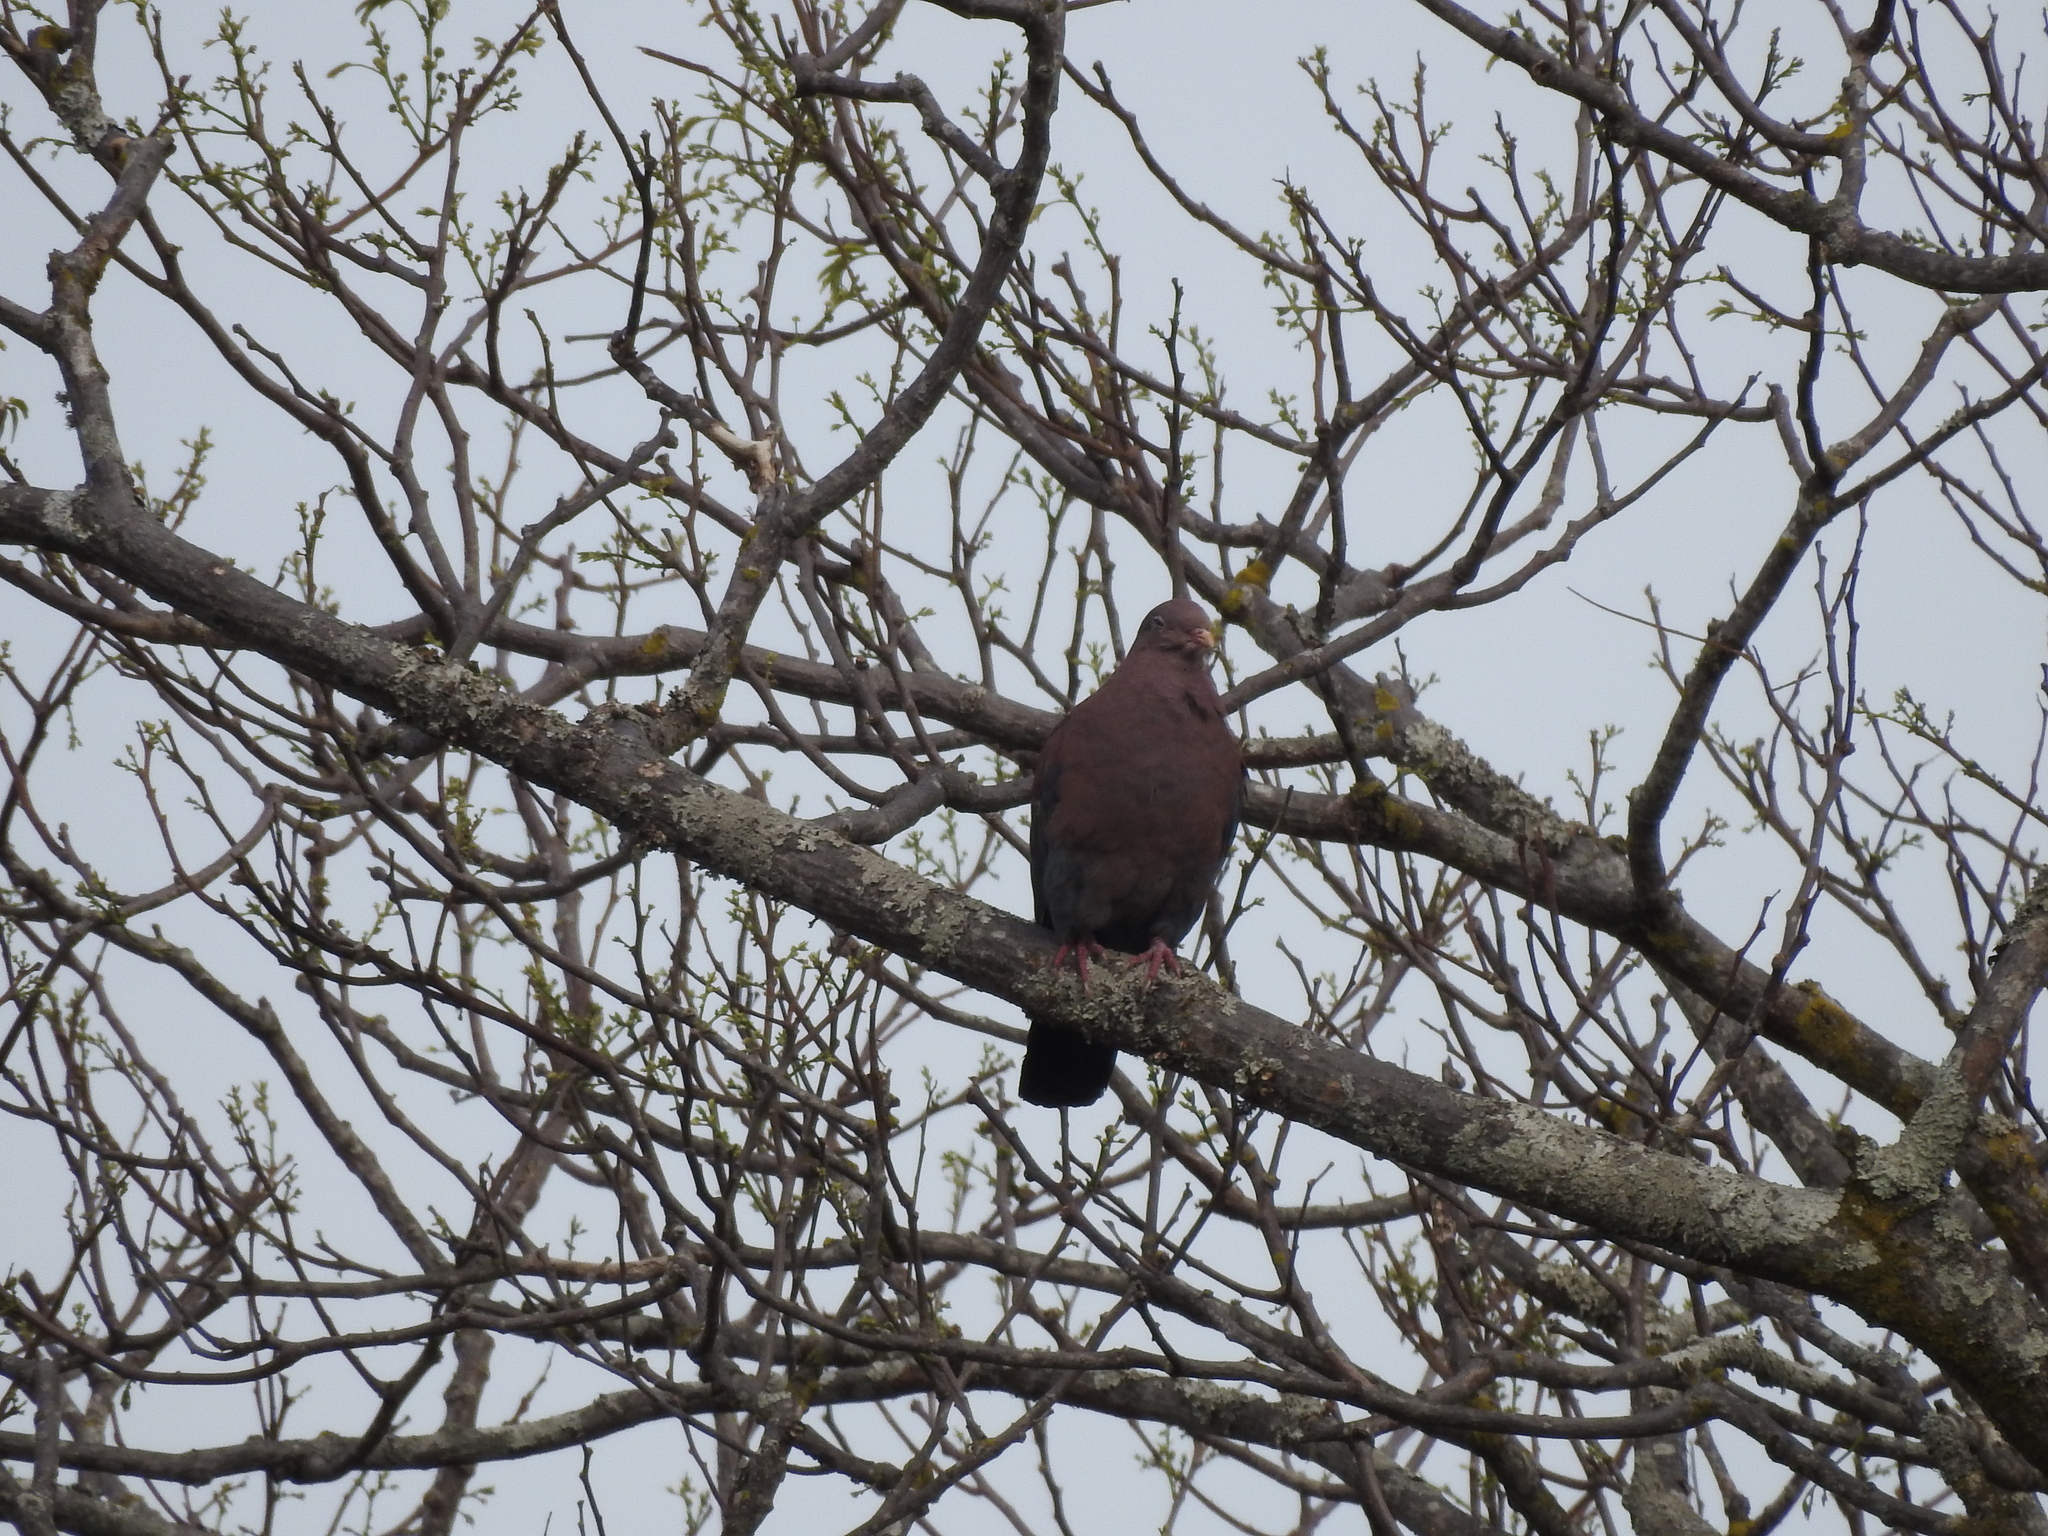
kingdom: Animalia
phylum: Chordata
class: Aves
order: Columbiformes
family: Columbidae
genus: Patagioenas
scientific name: Patagioenas flavirostris
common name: Red-billed pigeon
